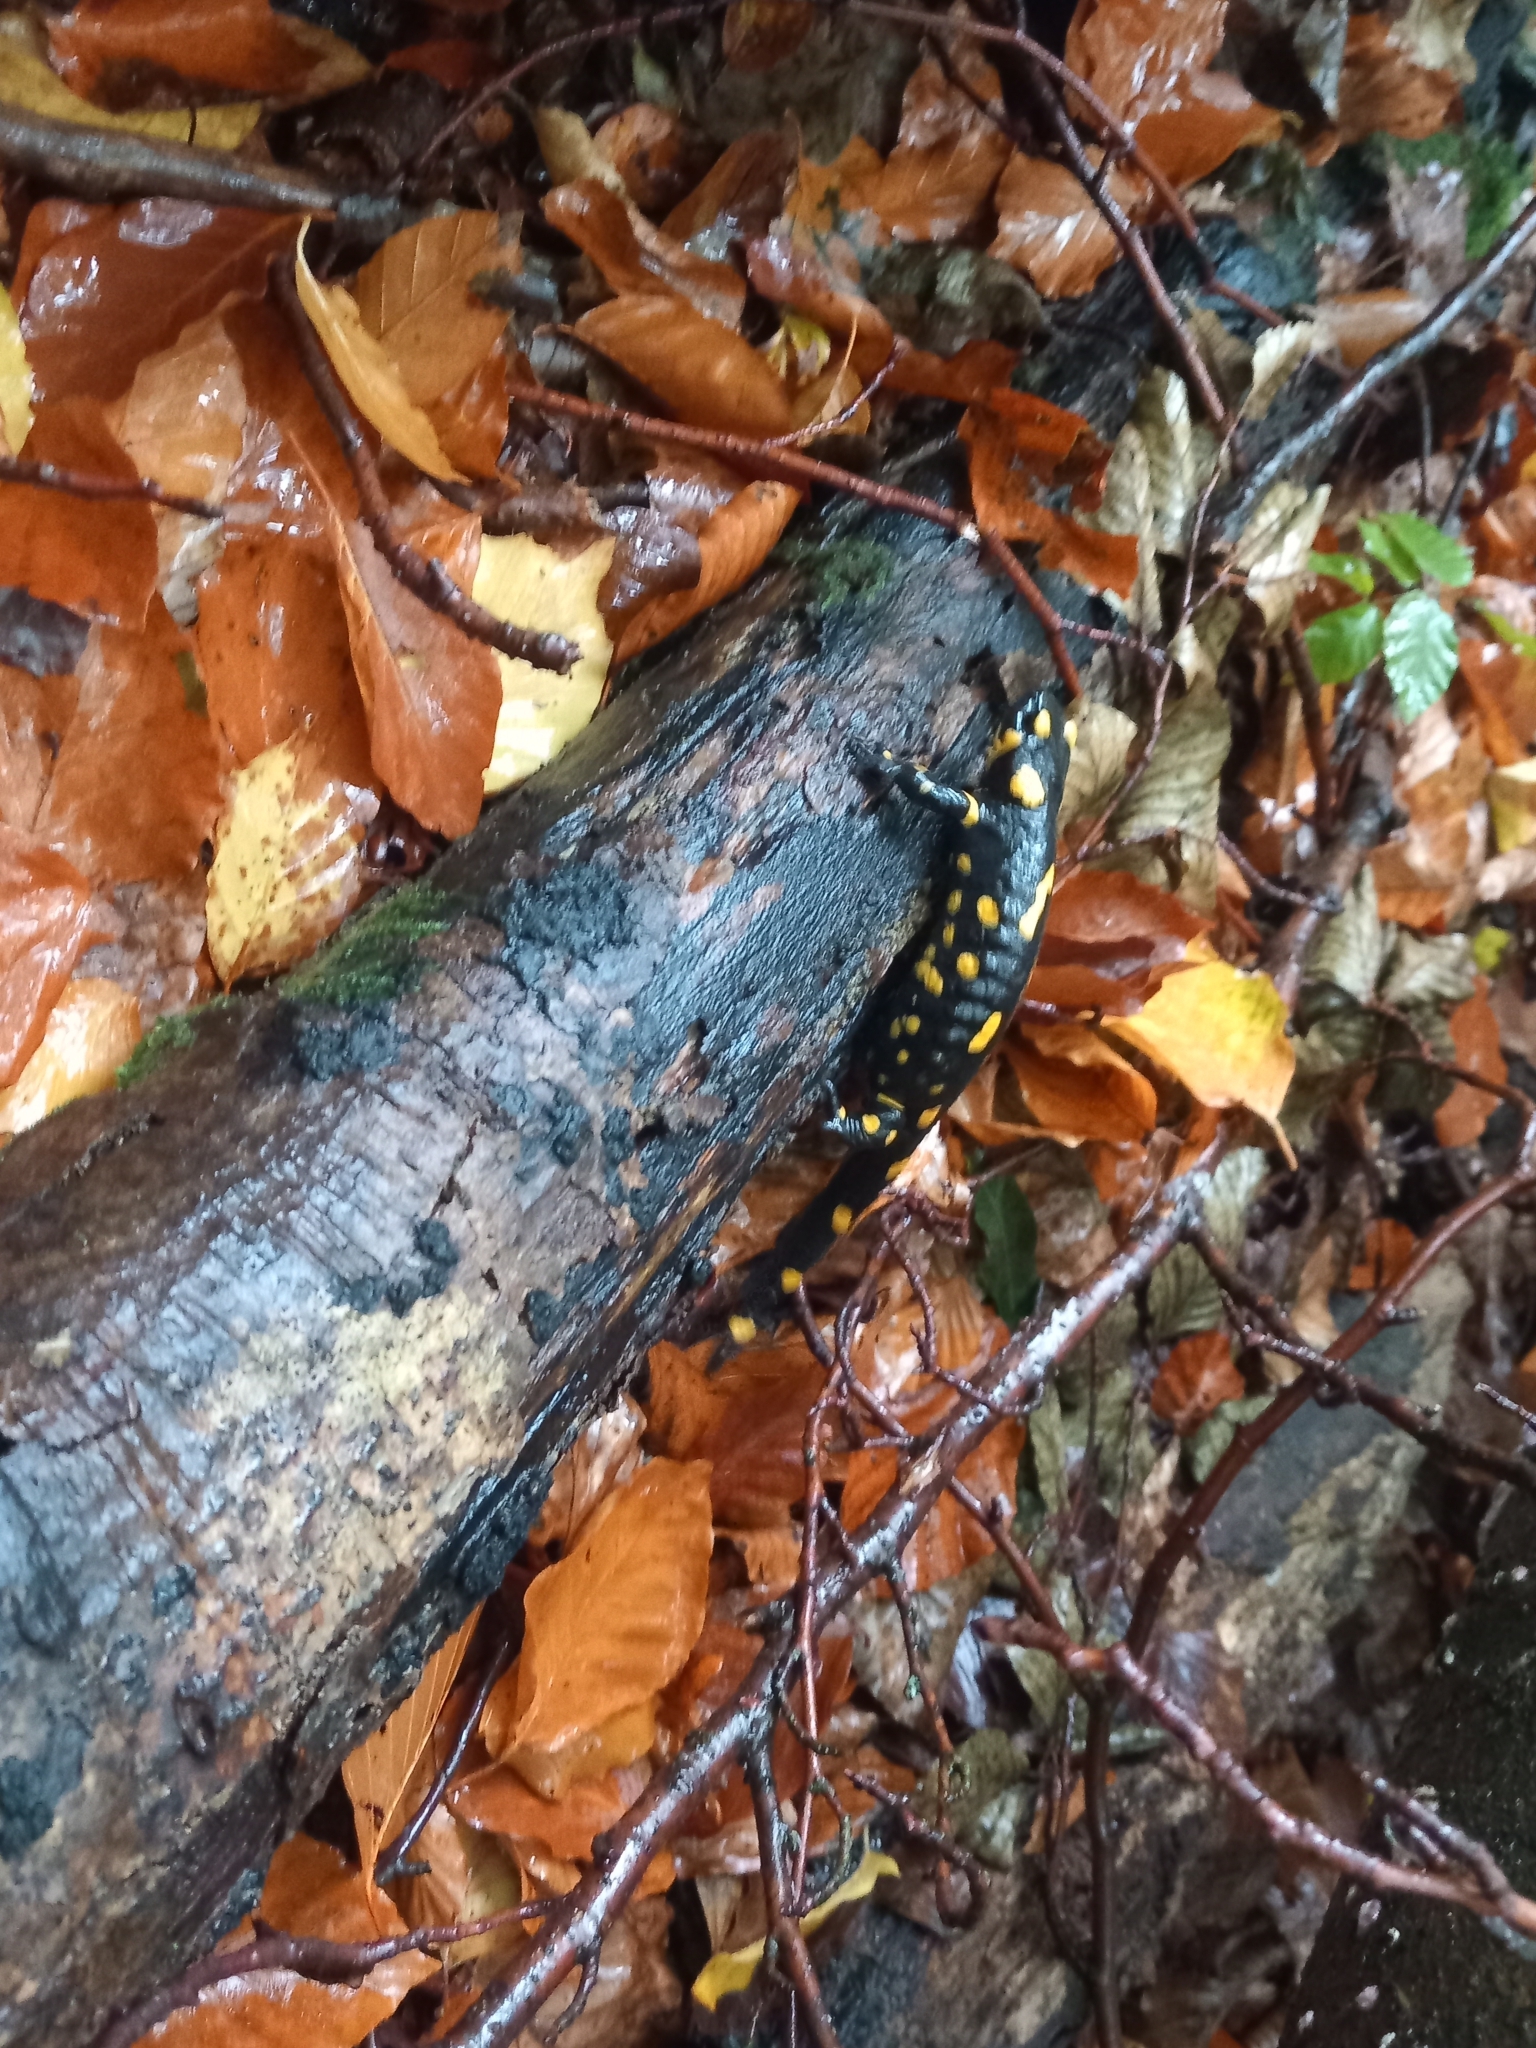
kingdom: Animalia
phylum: Chordata
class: Amphibia
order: Caudata
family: Salamandridae
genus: Salamandra
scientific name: Salamandra salamandra
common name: Fire salamander
